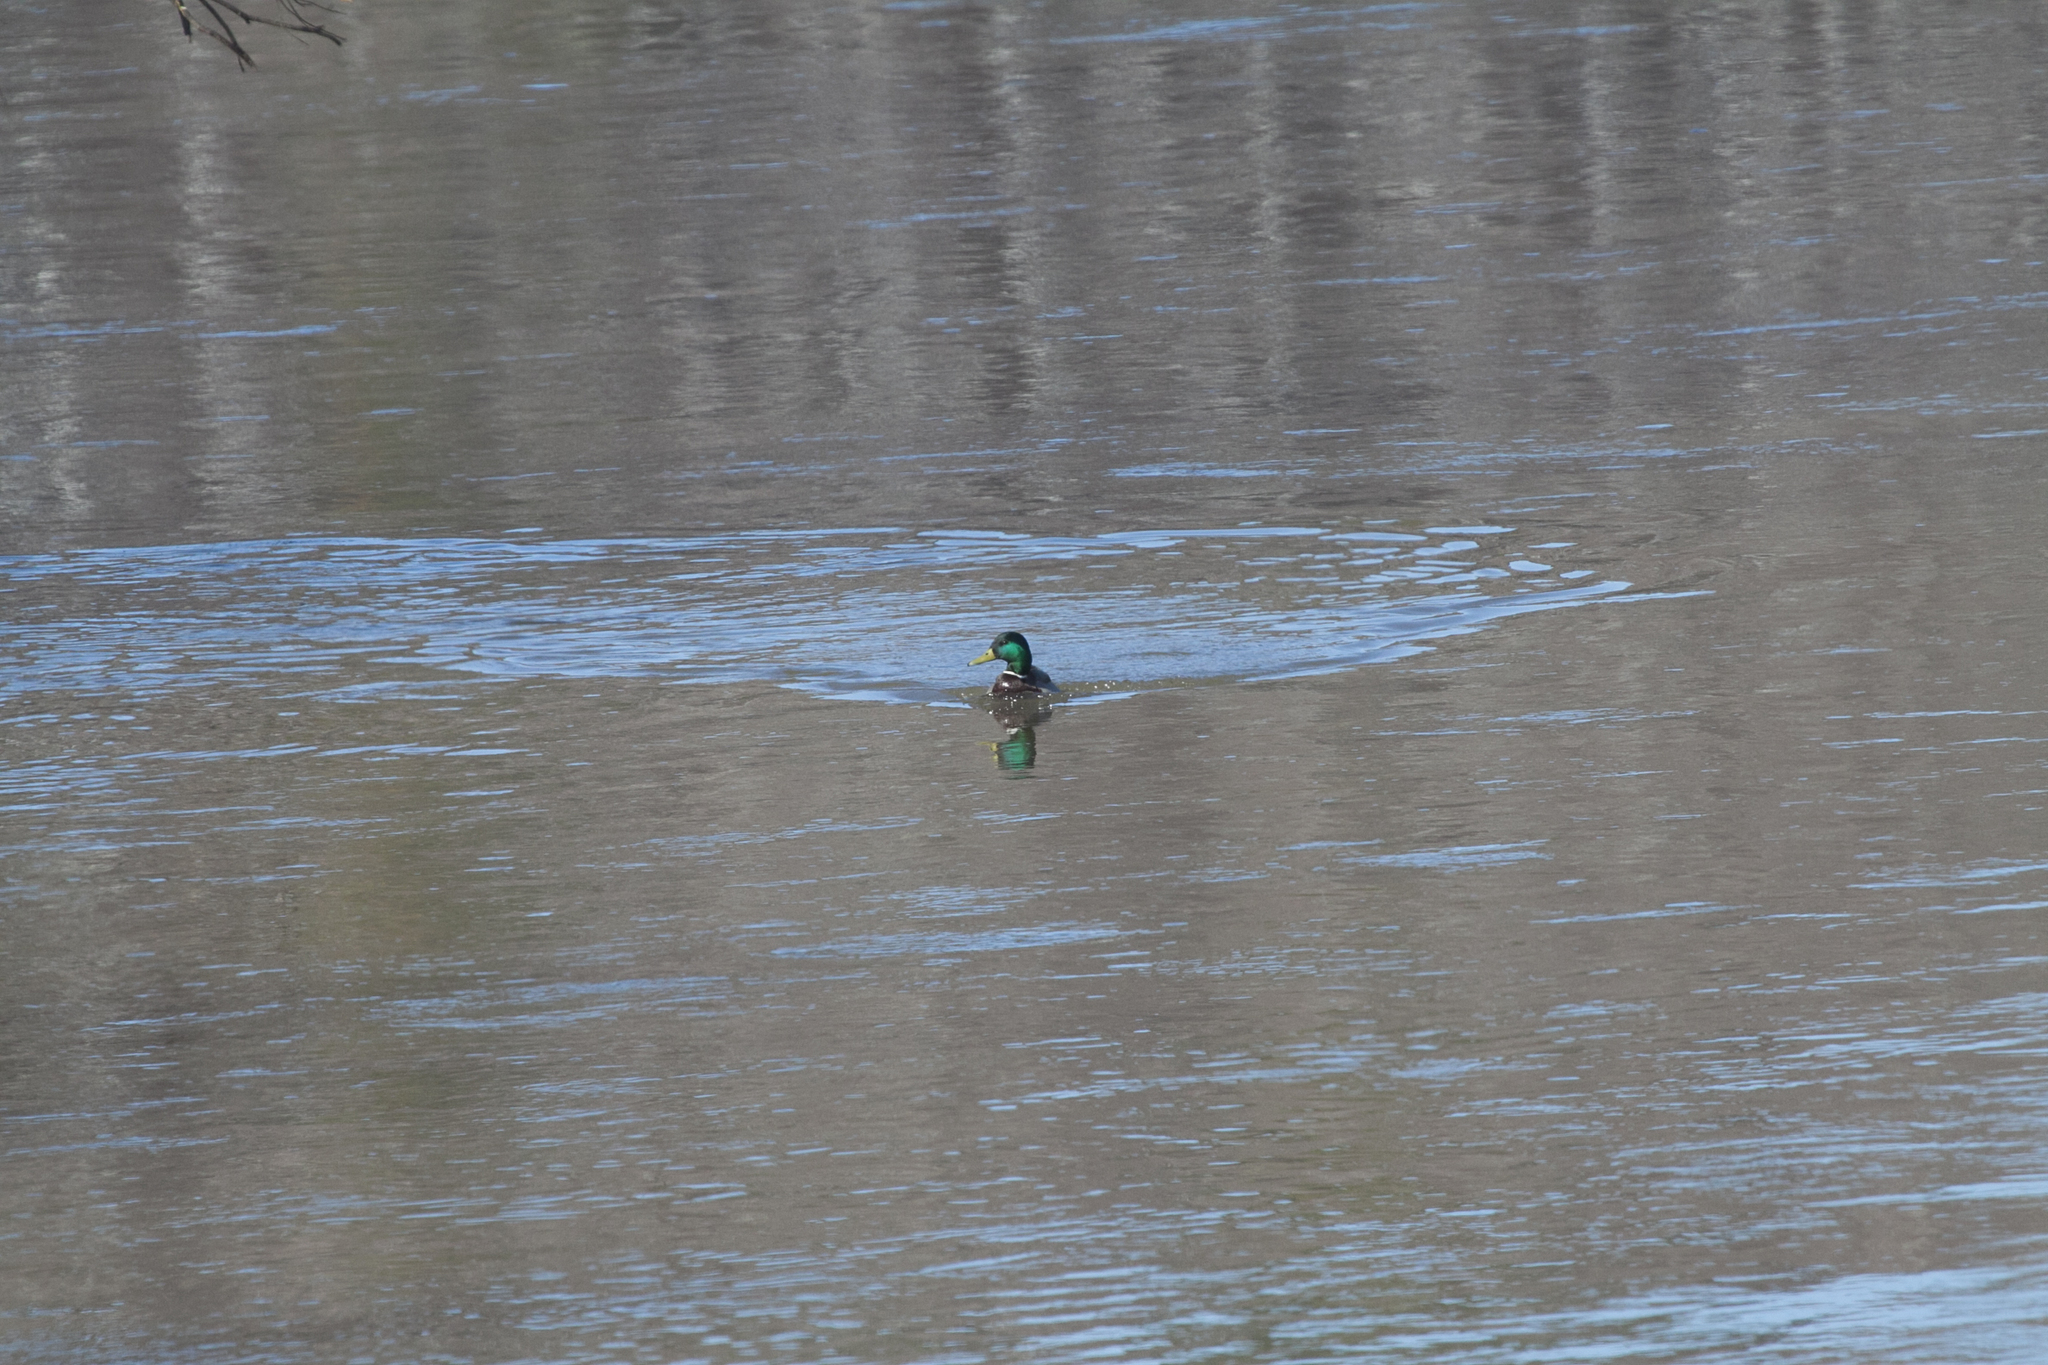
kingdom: Animalia
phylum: Chordata
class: Aves
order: Anseriformes
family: Anatidae
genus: Anas
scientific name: Anas platyrhynchos
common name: Mallard
